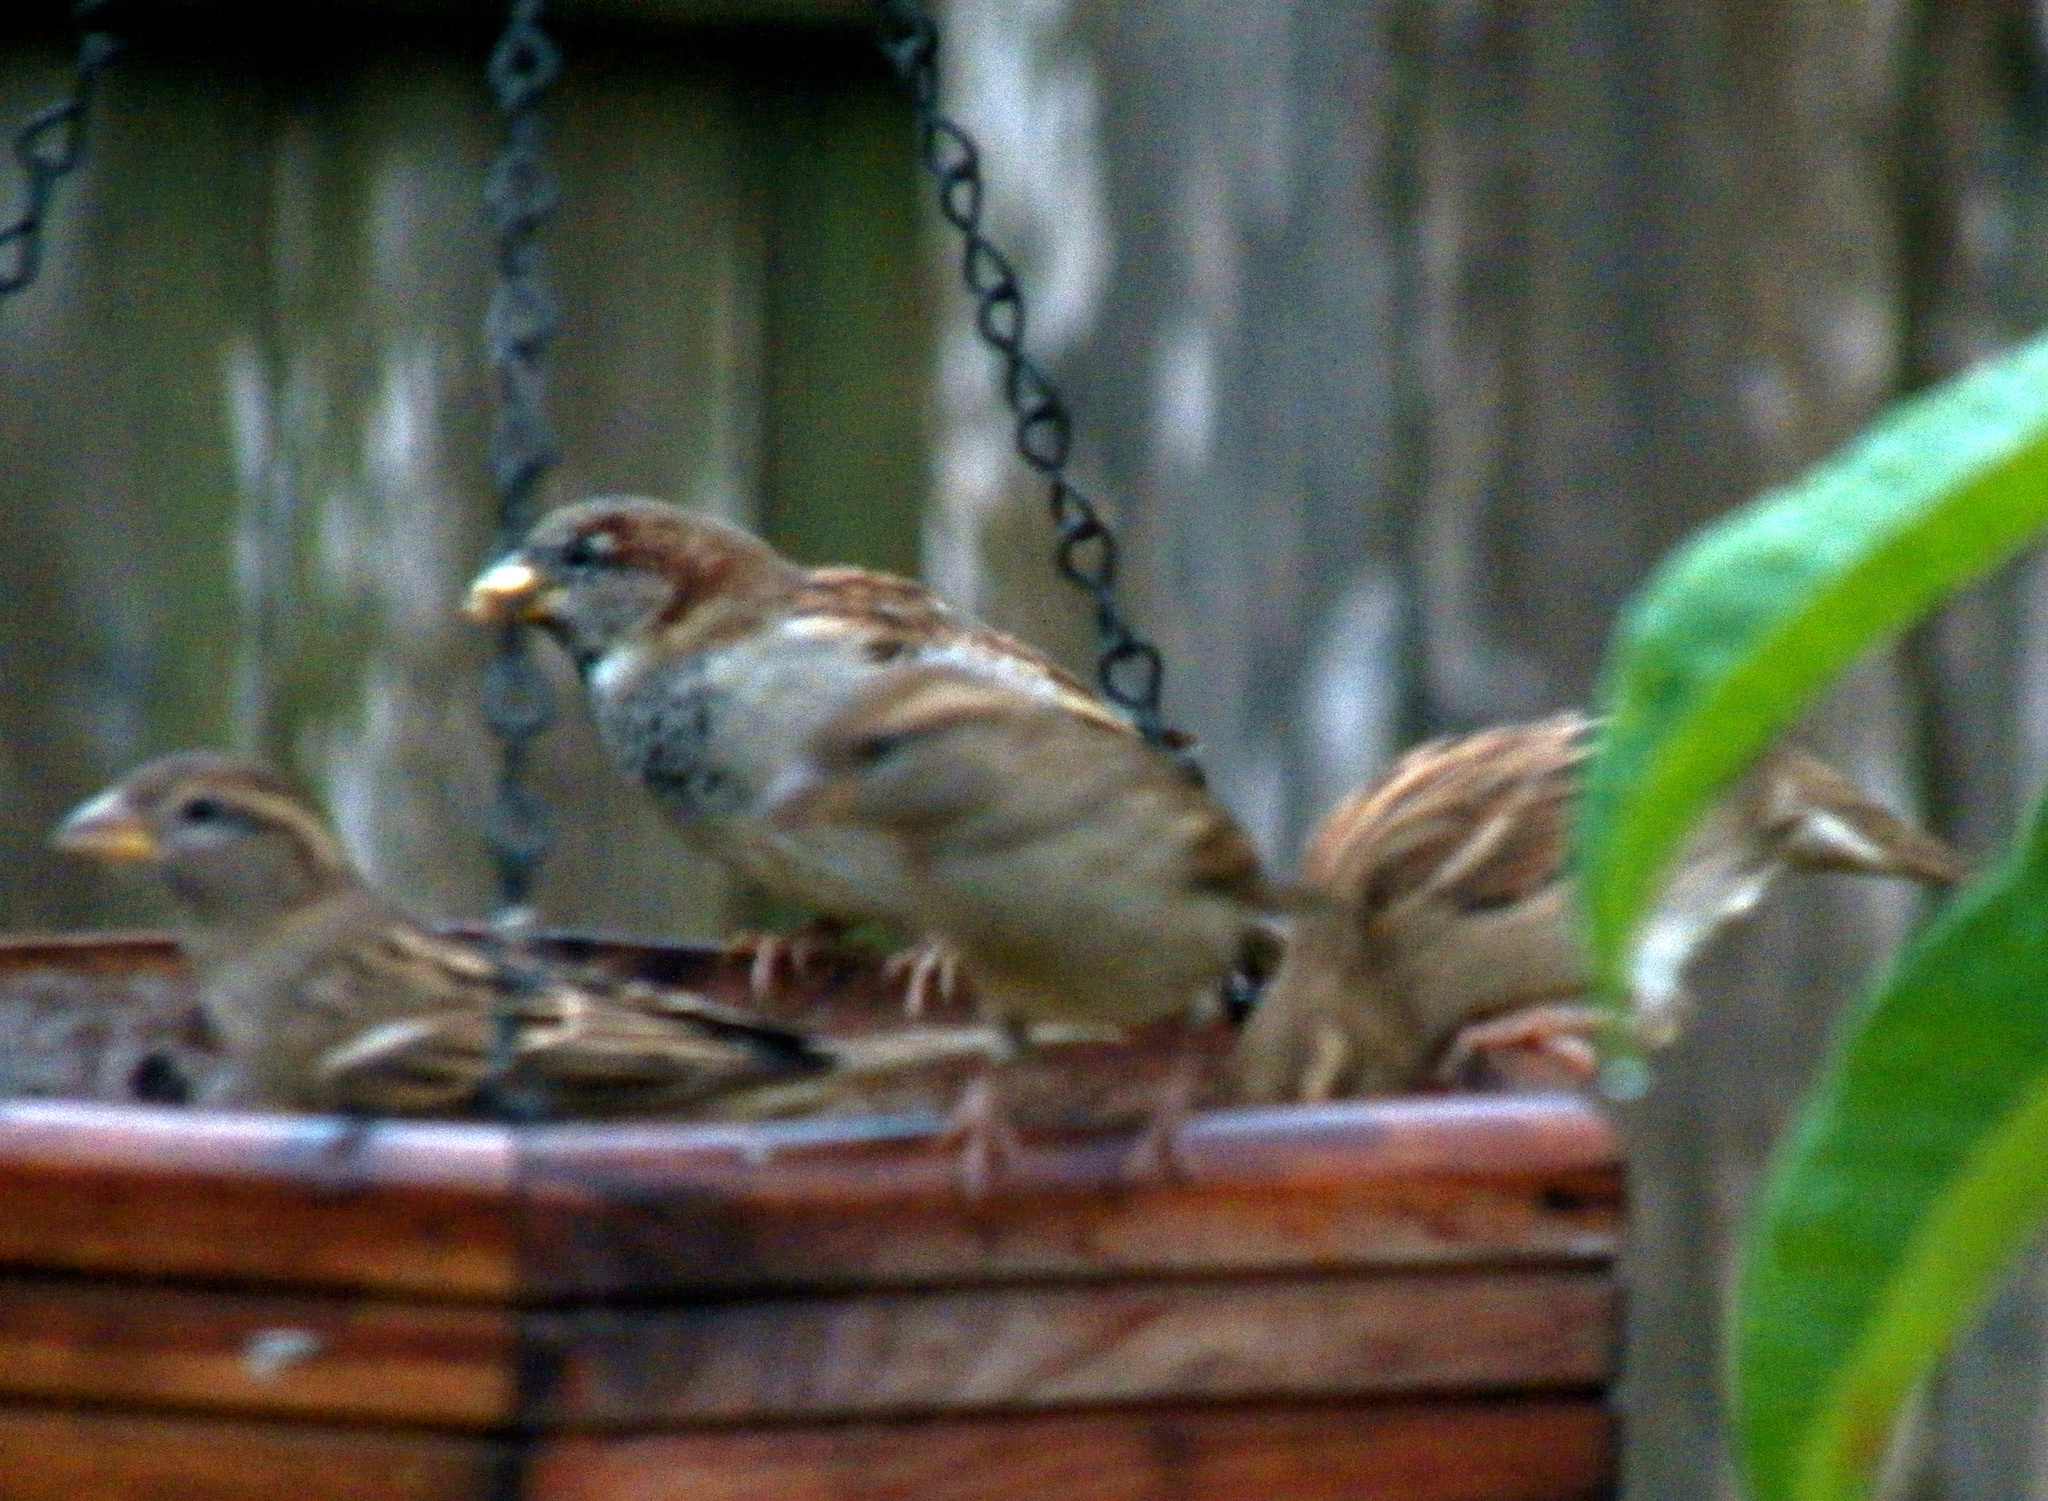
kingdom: Animalia
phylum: Chordata
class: Aves
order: Passeriformes
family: Passeridae
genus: Passer
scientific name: Passer domesticus
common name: House sparrow
